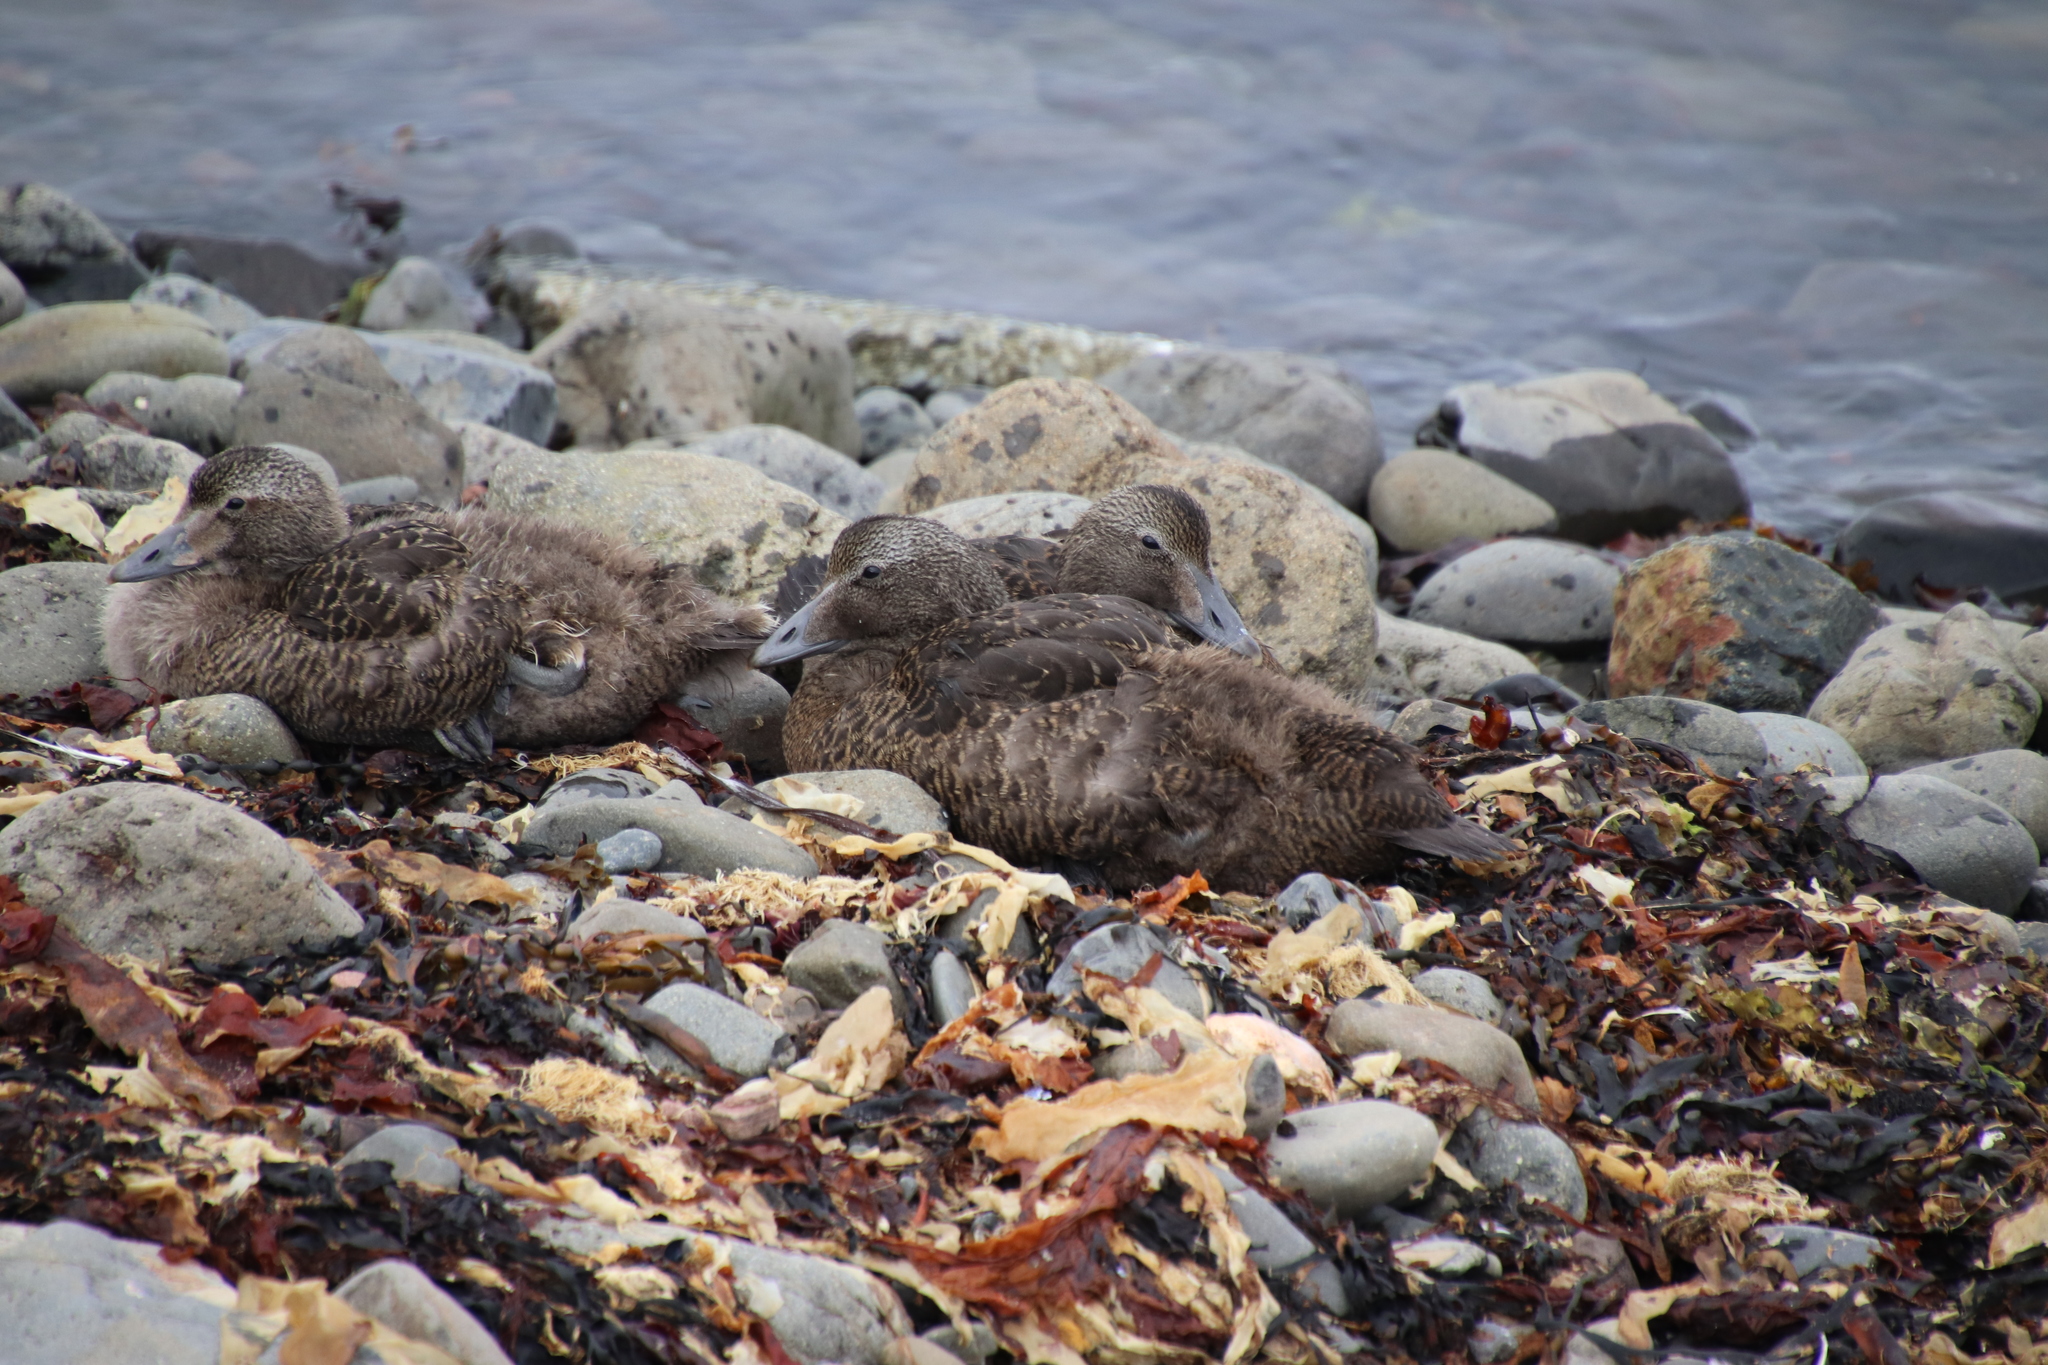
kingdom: Animalia
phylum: Chordata
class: Aves
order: Anseriformes
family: Anatidae
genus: Somateria
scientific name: Somateria mollissima
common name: Common eider
